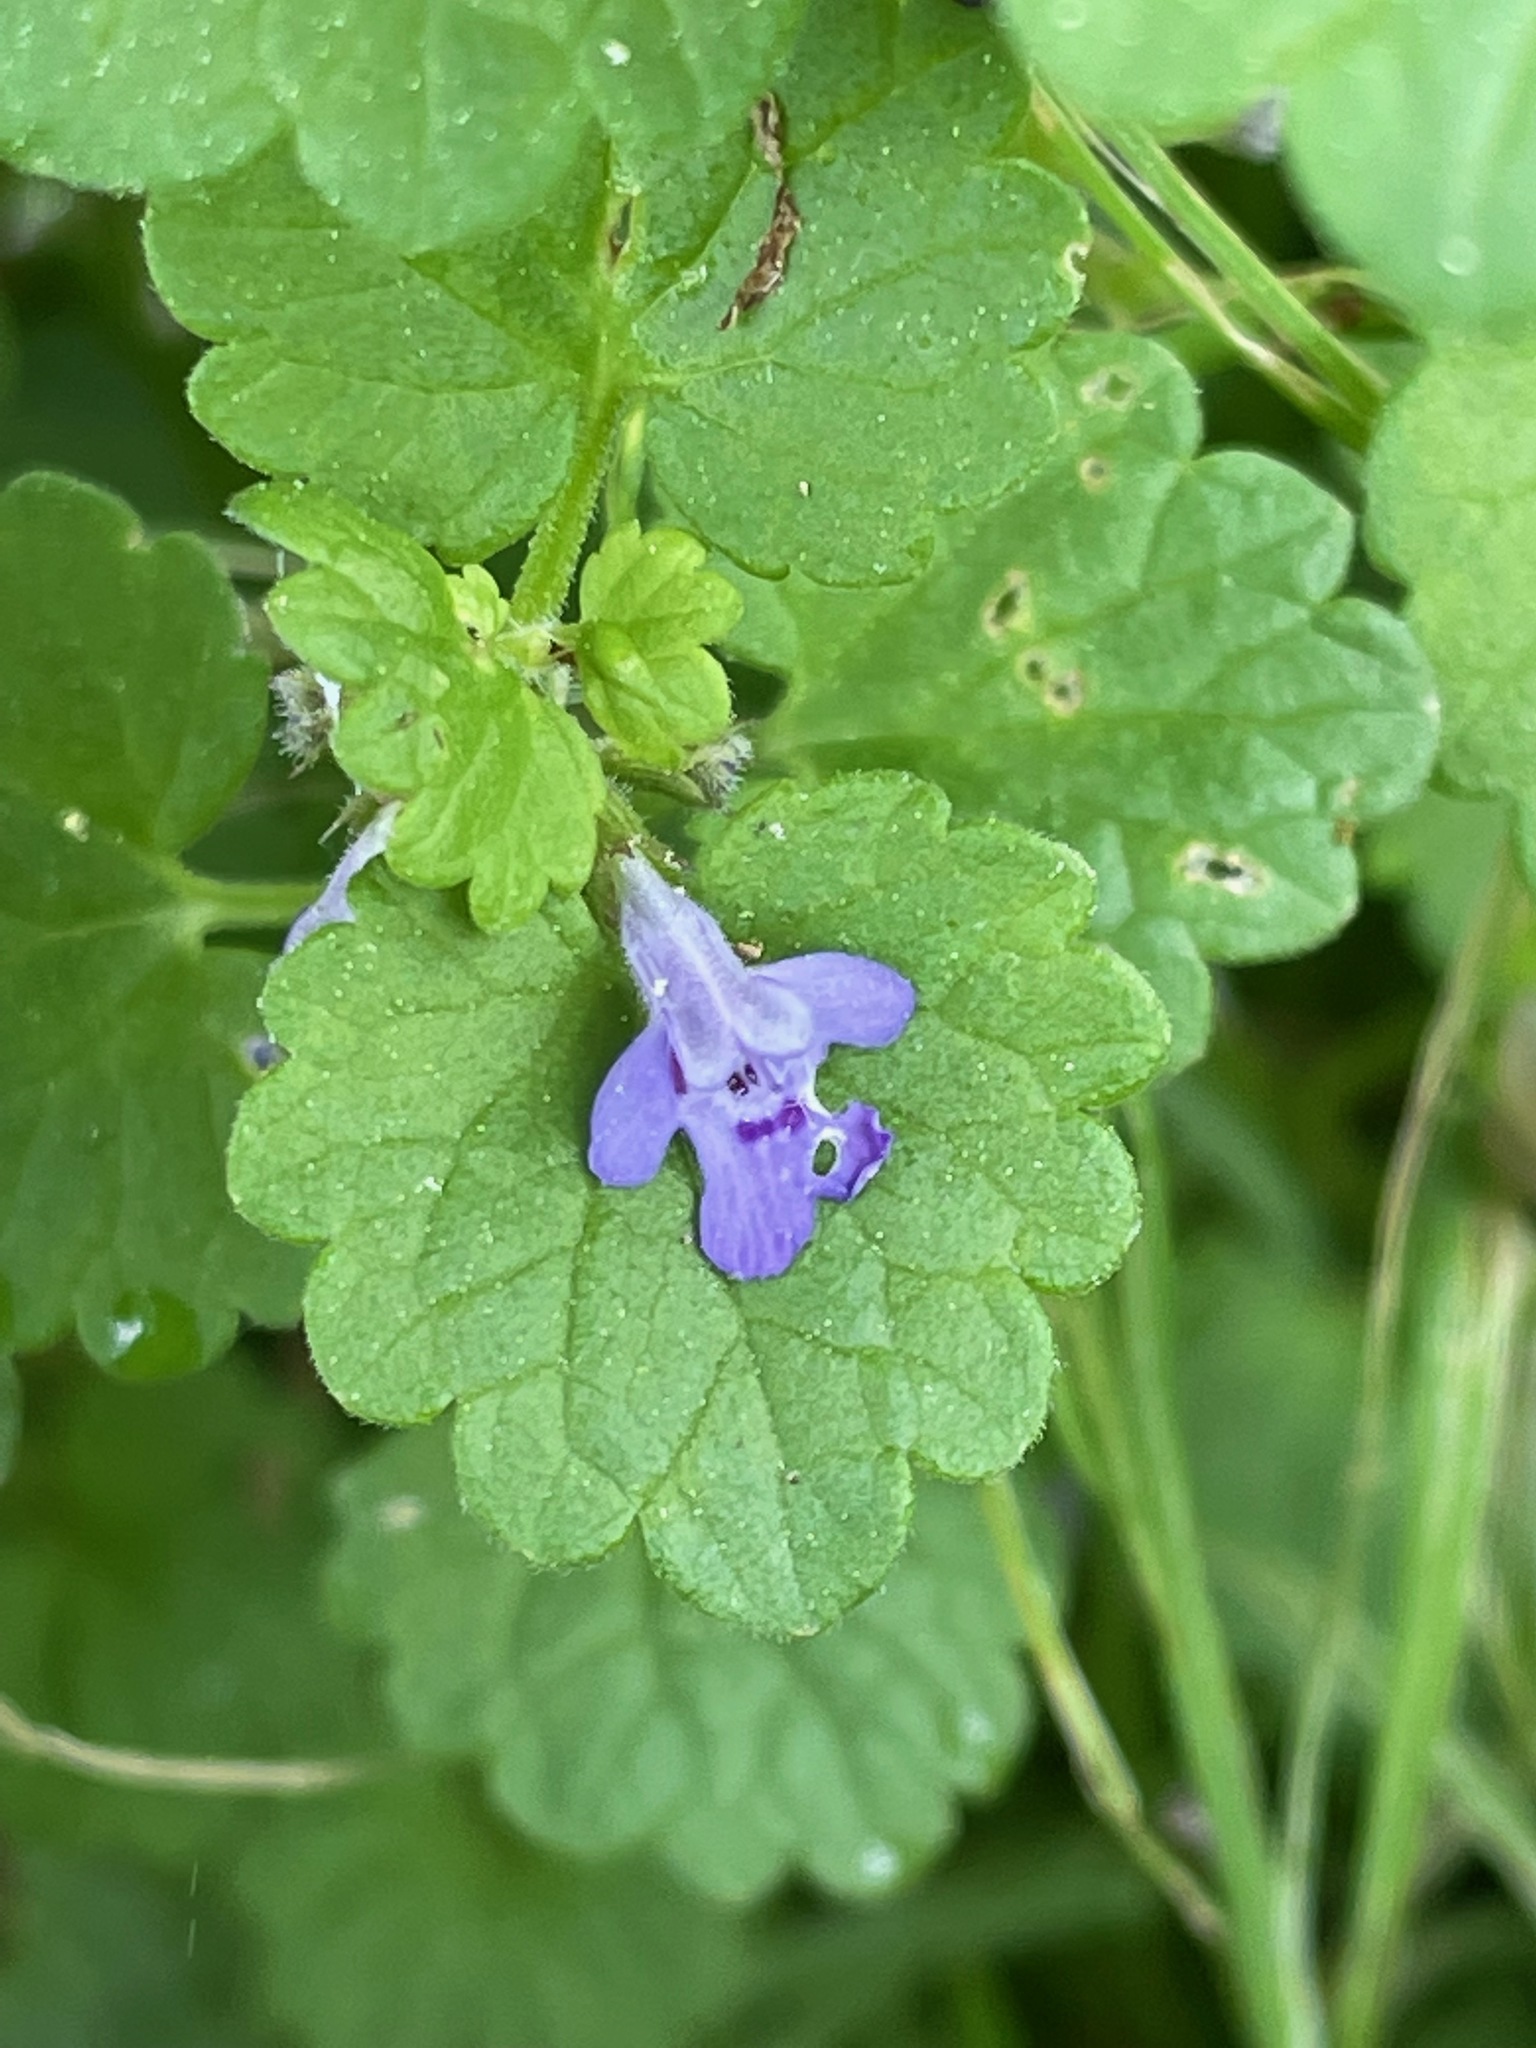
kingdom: Plantae
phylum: Tracheophyta
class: Magnoliopsida
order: Lamiales
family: Lamiaceae
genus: Glechoma
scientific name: Glechoma hederacea
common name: Ground ivy
